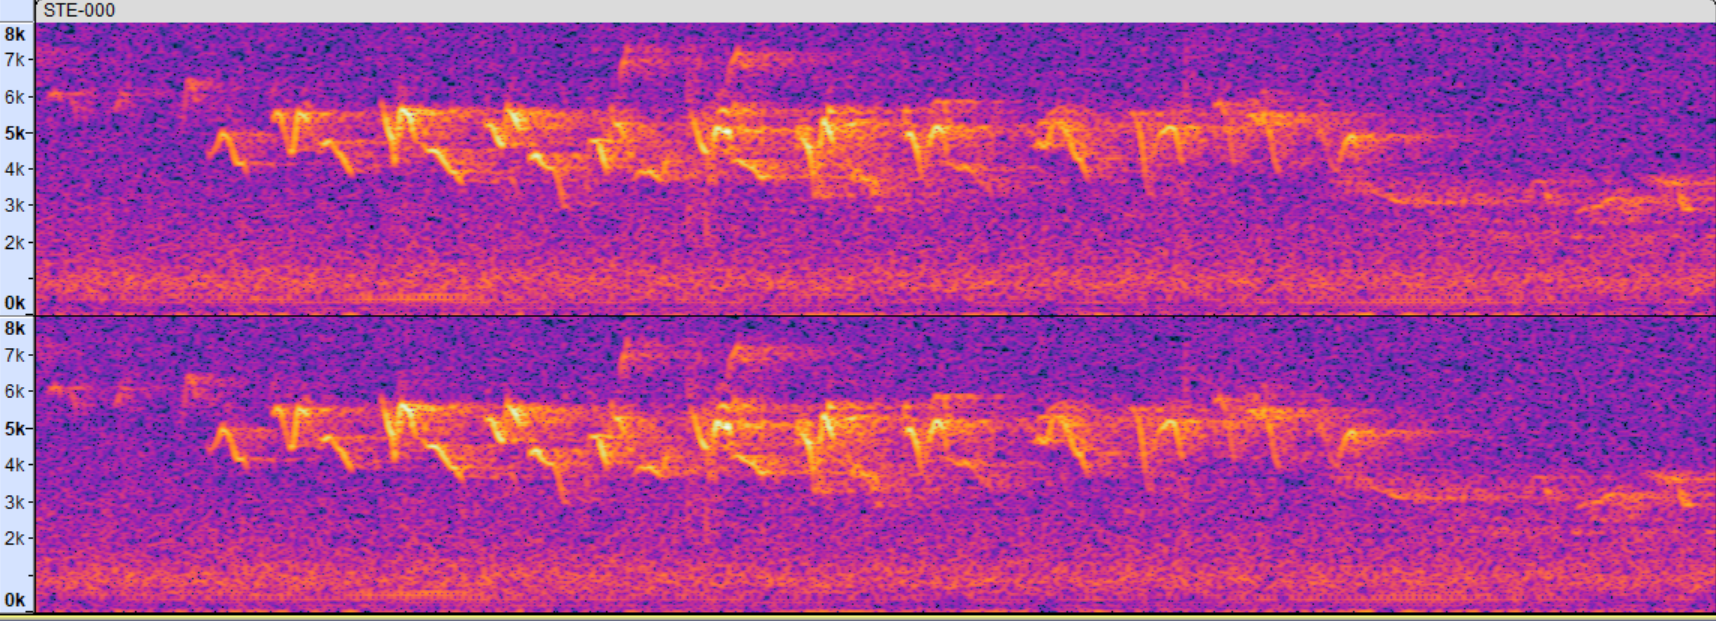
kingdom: Animalia
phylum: Chordata
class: Aves
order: Passeriformes
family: Parulidae
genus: Setophaga
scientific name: Setophaga coronata
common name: Myrtle warbler
